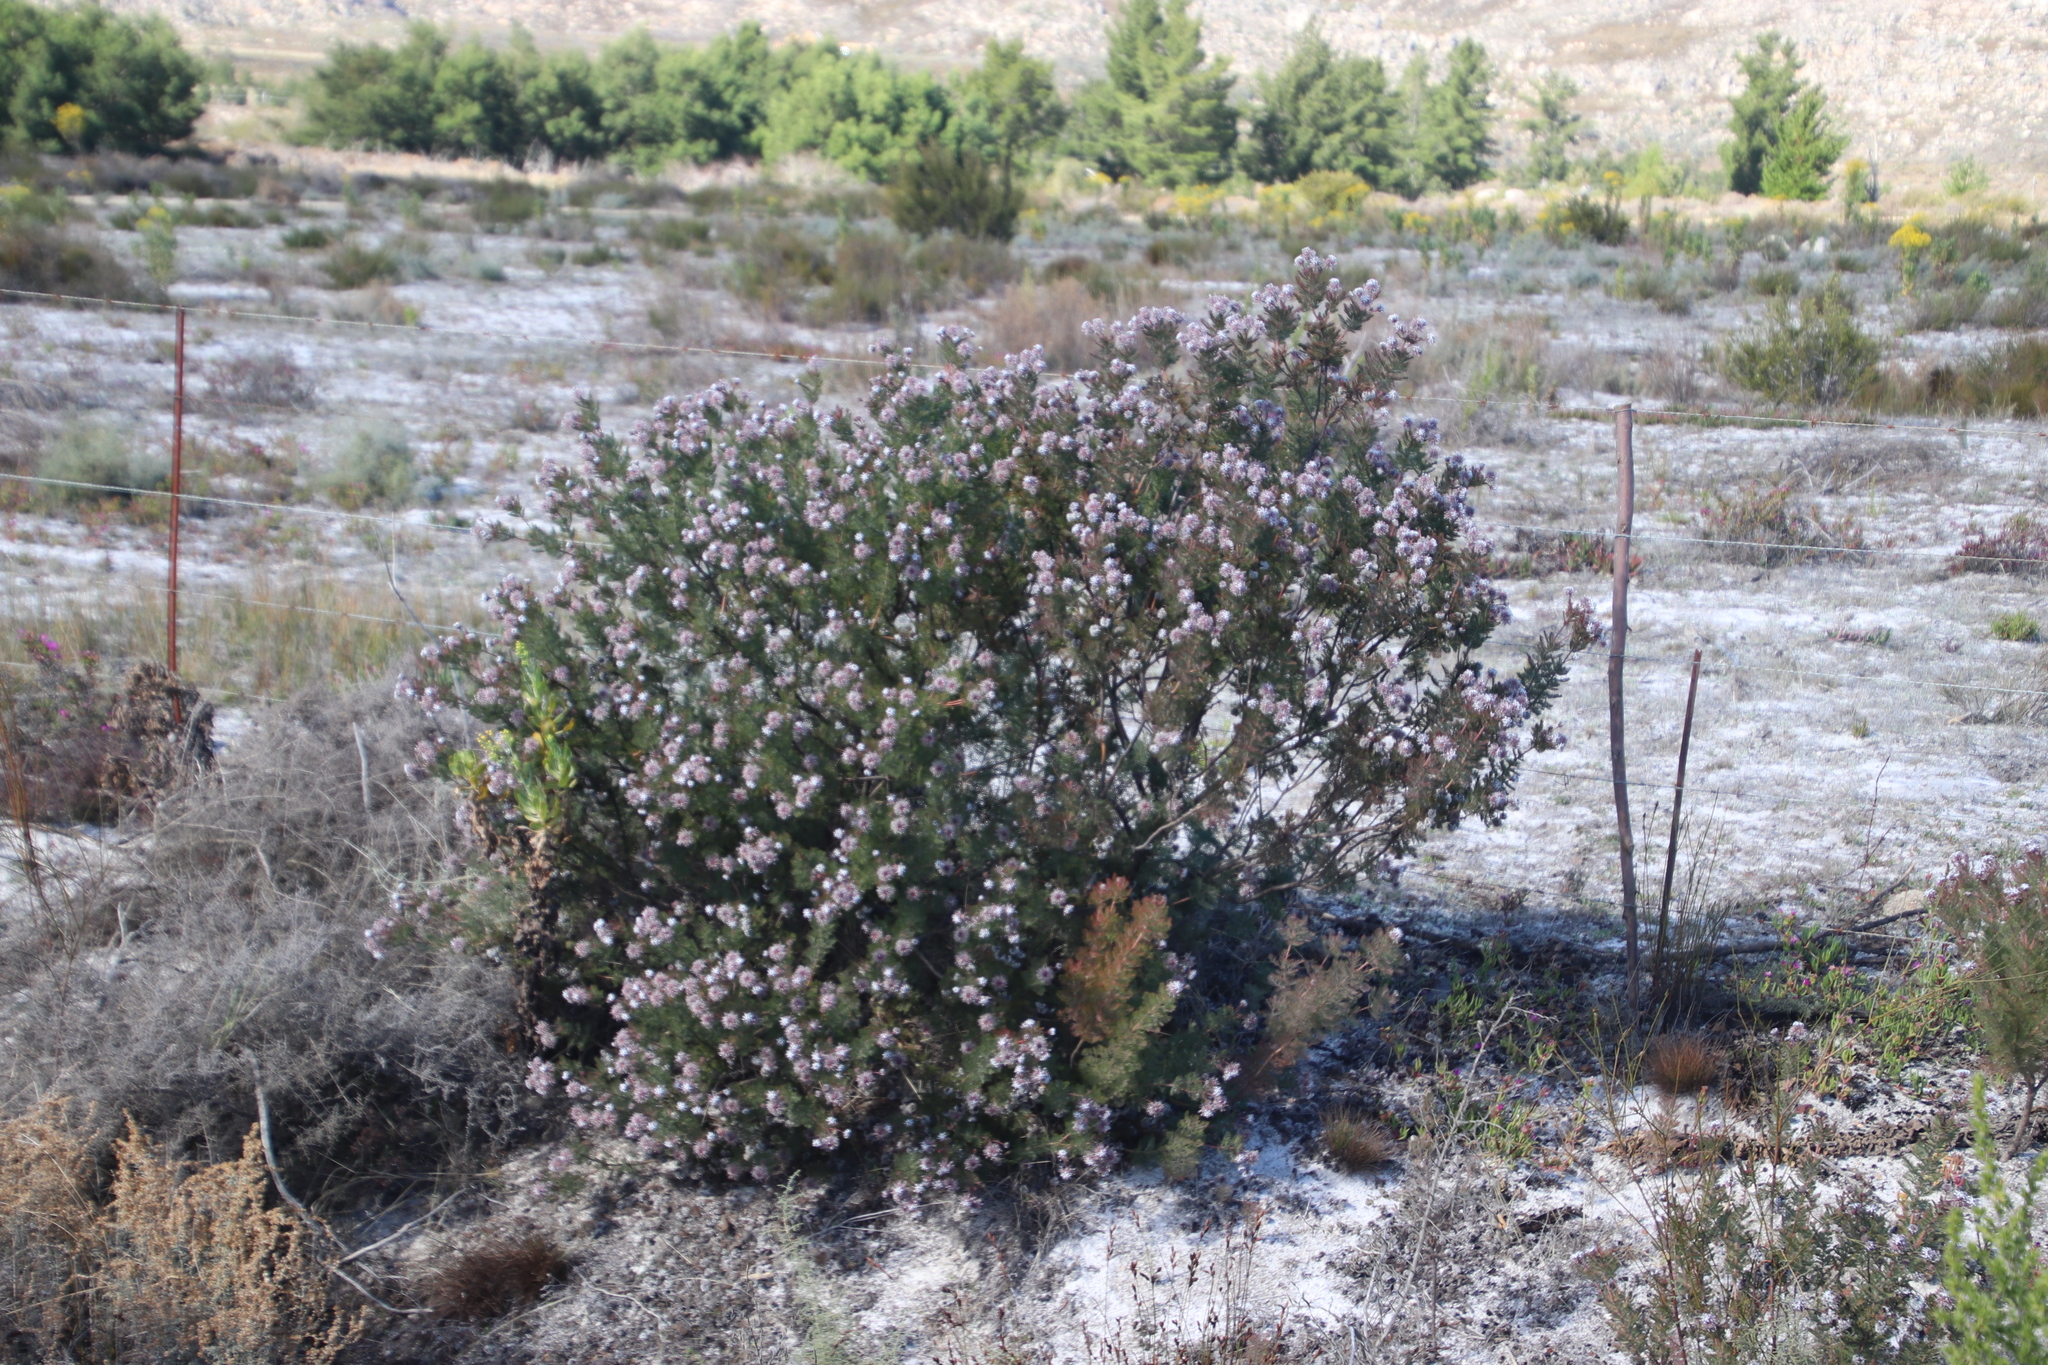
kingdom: Plantae
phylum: Tracheophyta
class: Magnoliopsida
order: Proteales
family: Proteaceae
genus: Serruria
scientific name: Serruria pedunculata
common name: Fan-leaf spiderhead
